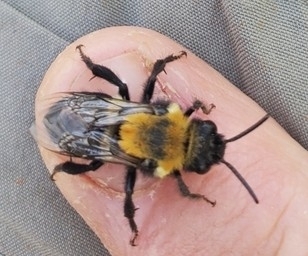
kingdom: Animalia
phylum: Arthropoda
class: Insecta
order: Hymenoptera
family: Apidae
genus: Melecta
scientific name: Melecta
